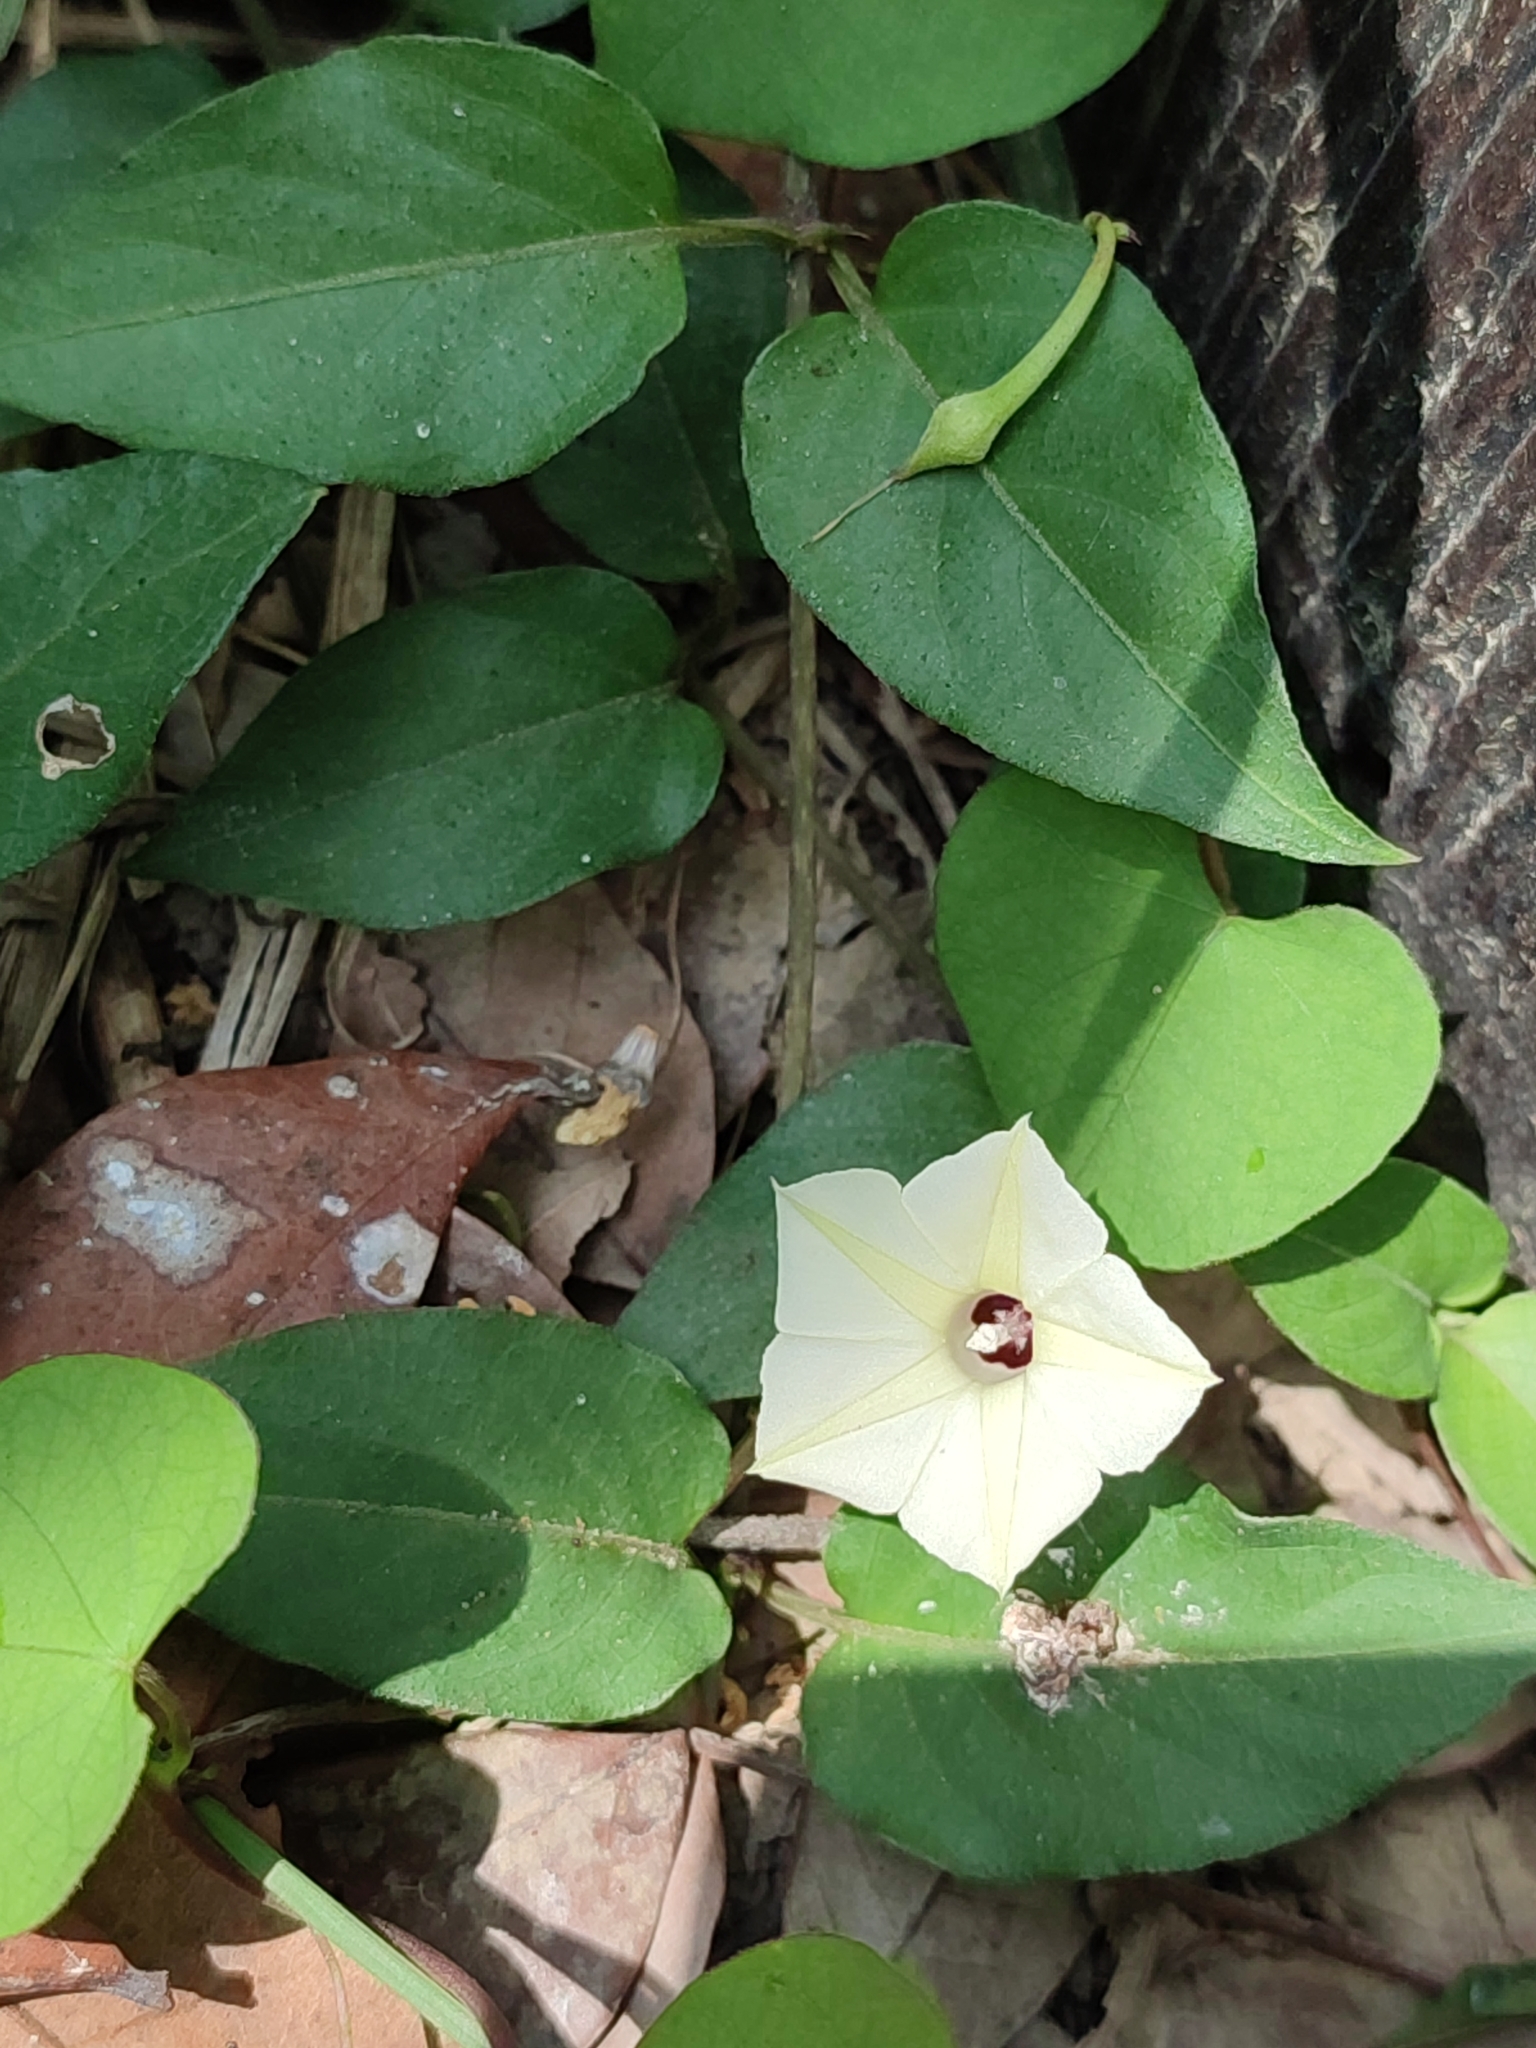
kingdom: Plantae
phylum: Tracheophyta
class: Magnoliopsida
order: Solanales
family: Convolvulaceae
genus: Ipomoea
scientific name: Ipomoea obscura
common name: Obscure morning-glory
